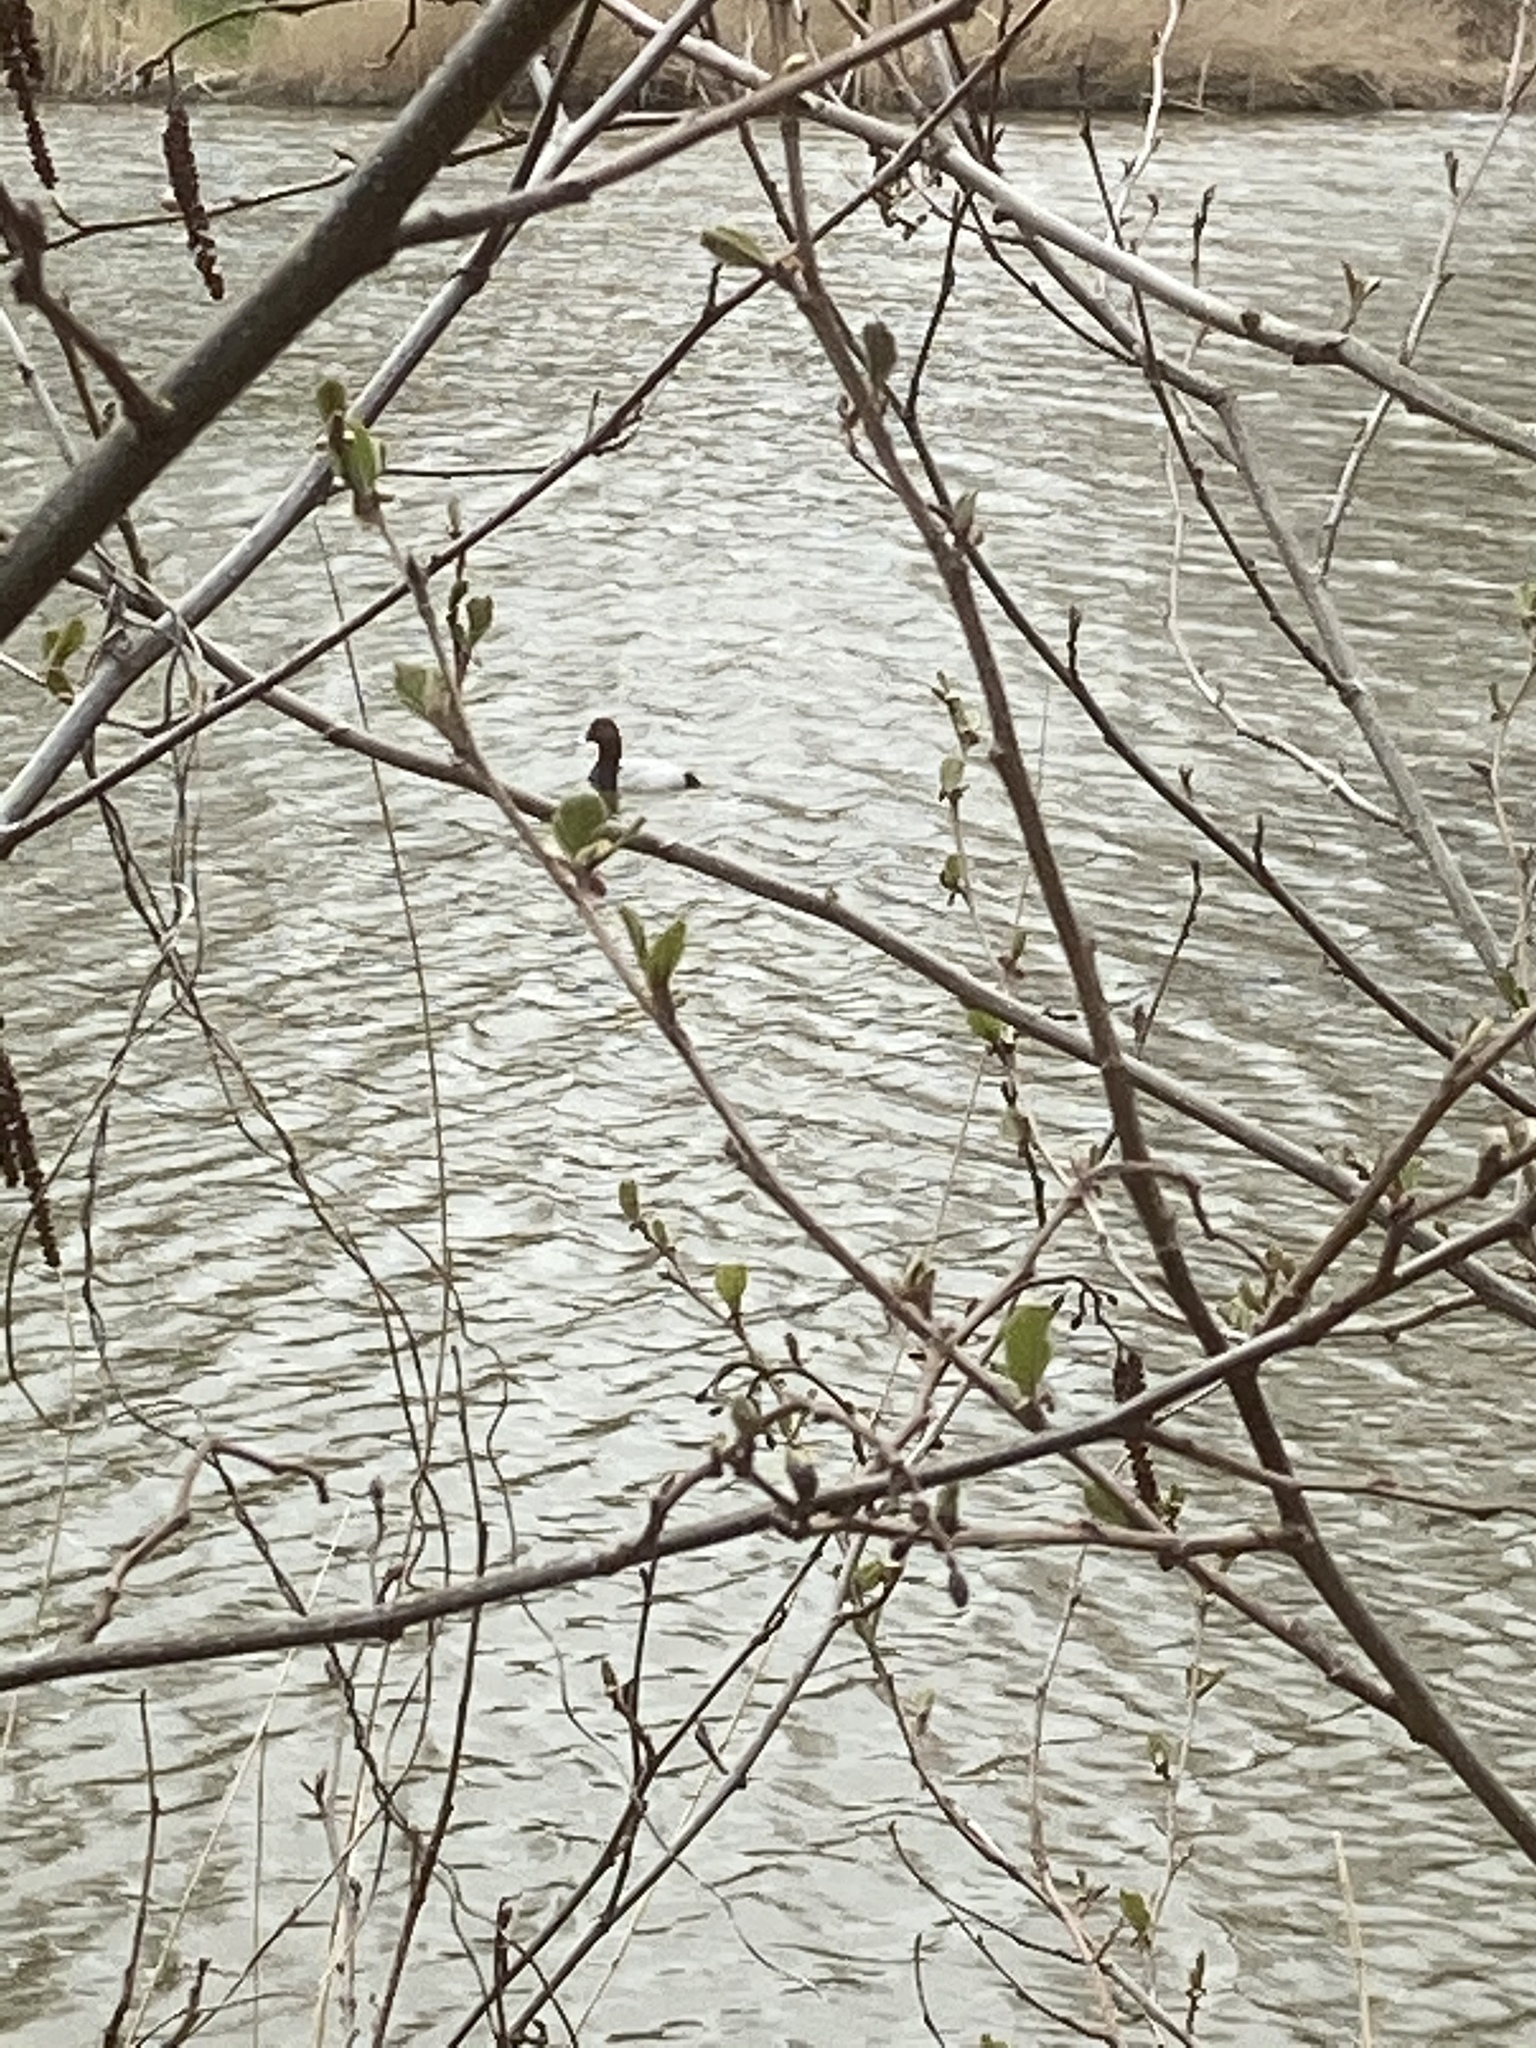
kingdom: Animalia
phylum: Chordata
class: Aves
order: Anseriformes
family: Anatidae
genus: Aythya
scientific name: Aythya ferina
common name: Common pochard
